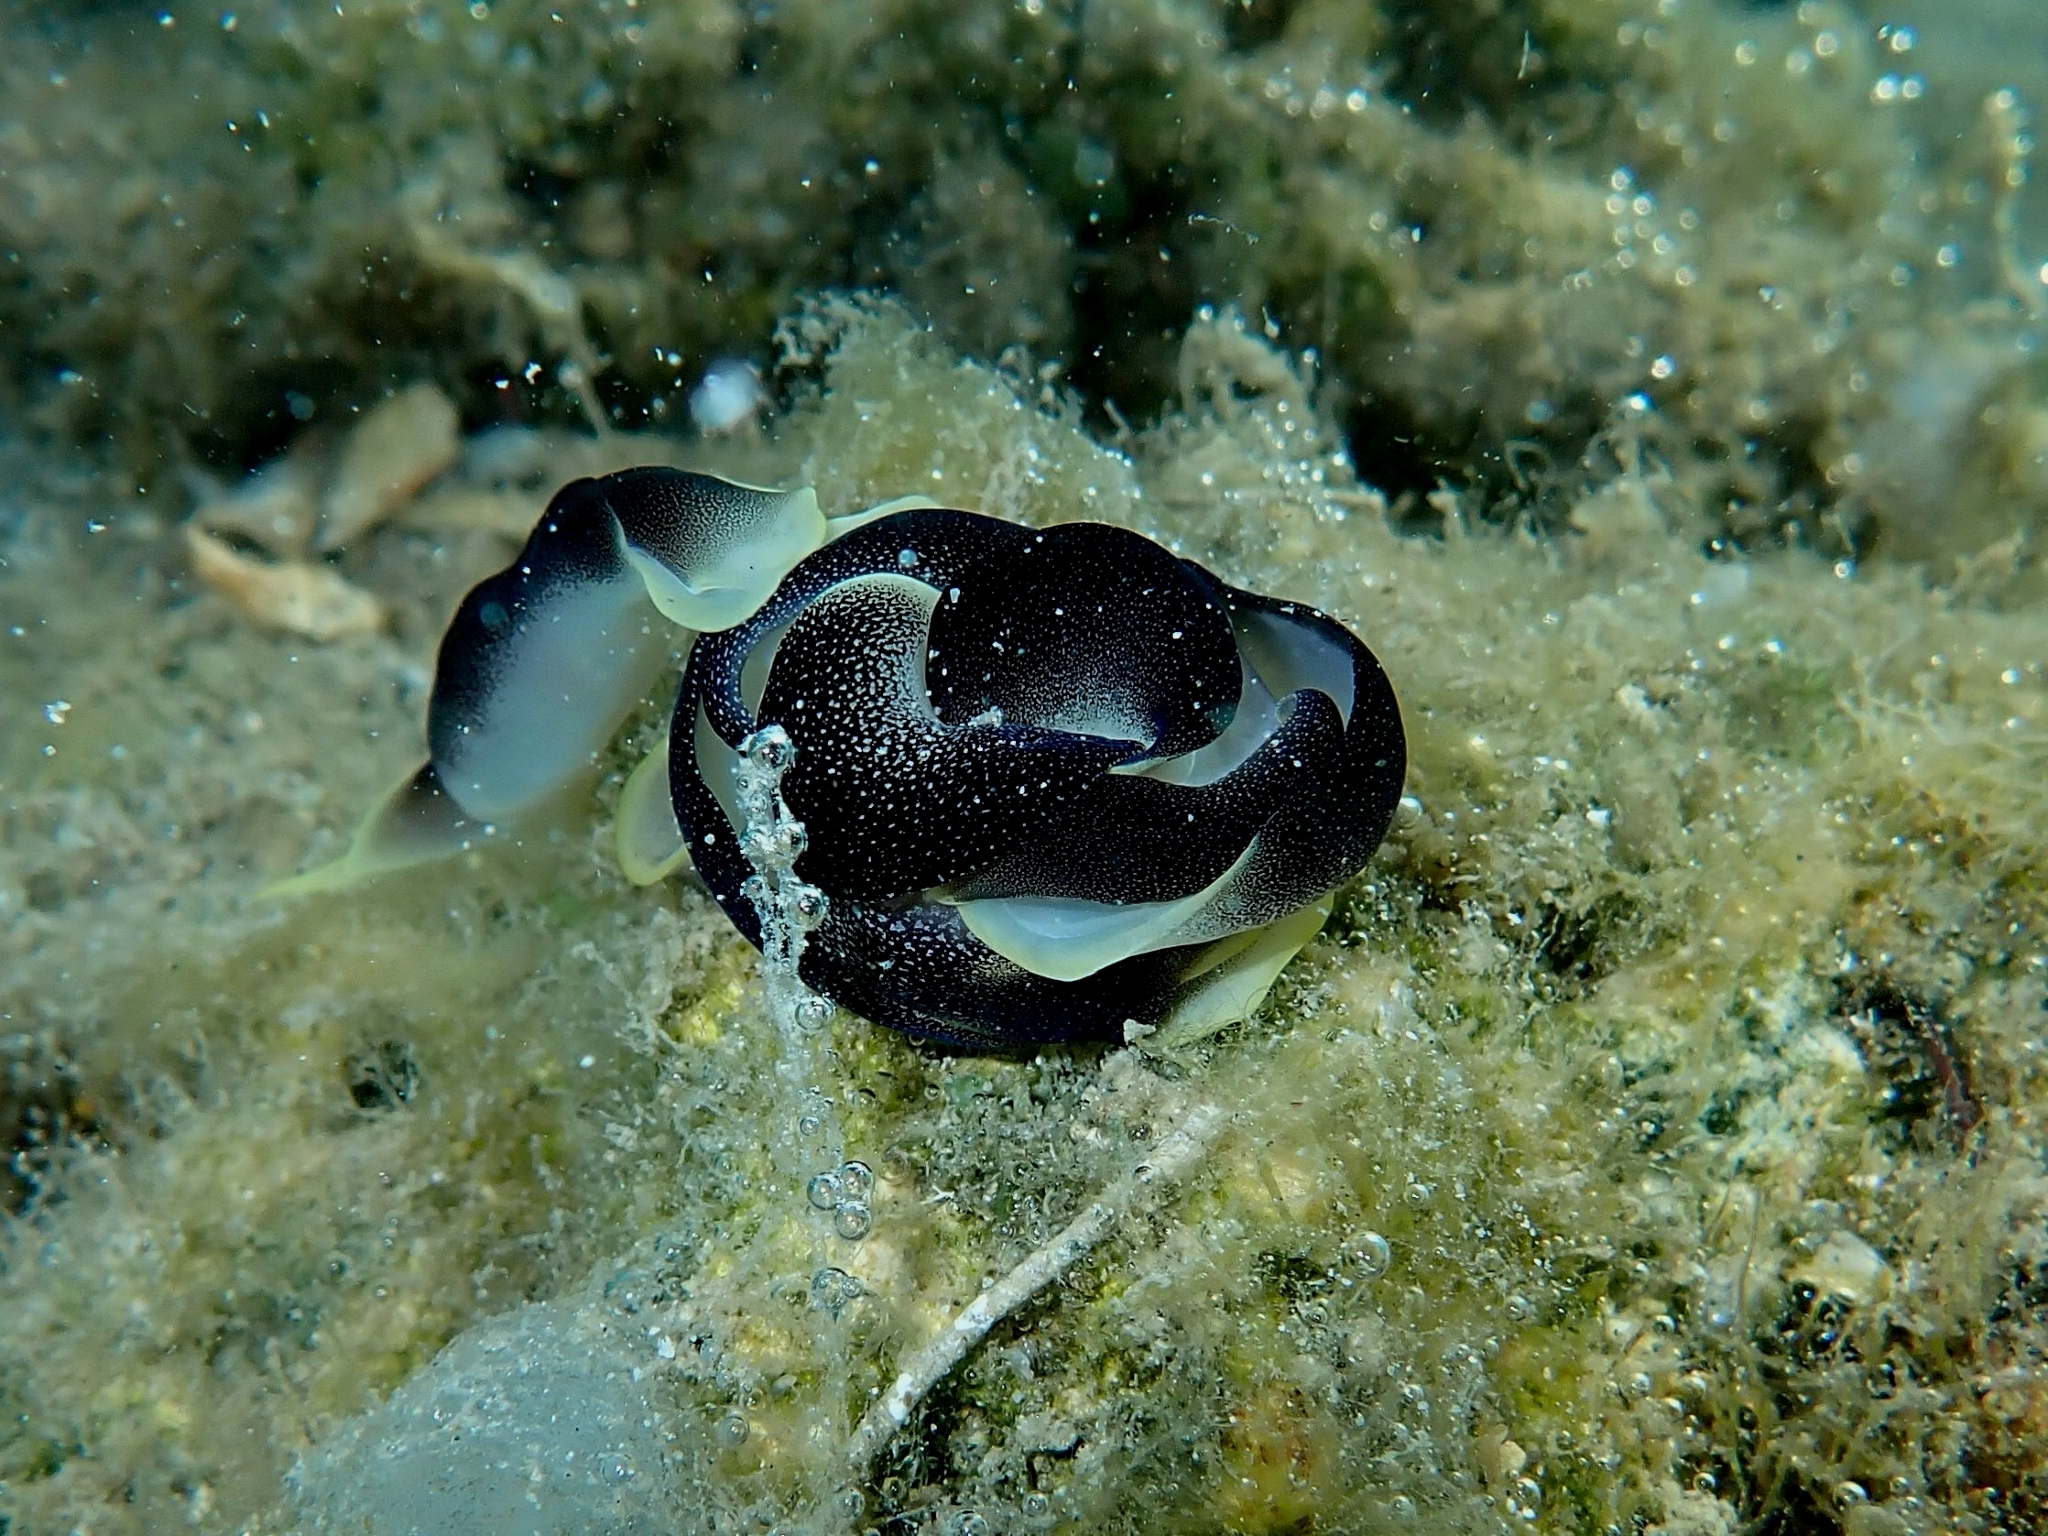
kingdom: Animalia
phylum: Mollusca
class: Gastropoda
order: Cephalaspidea
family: Aglajidae
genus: Chelidonura
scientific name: Chelidonura amoena
